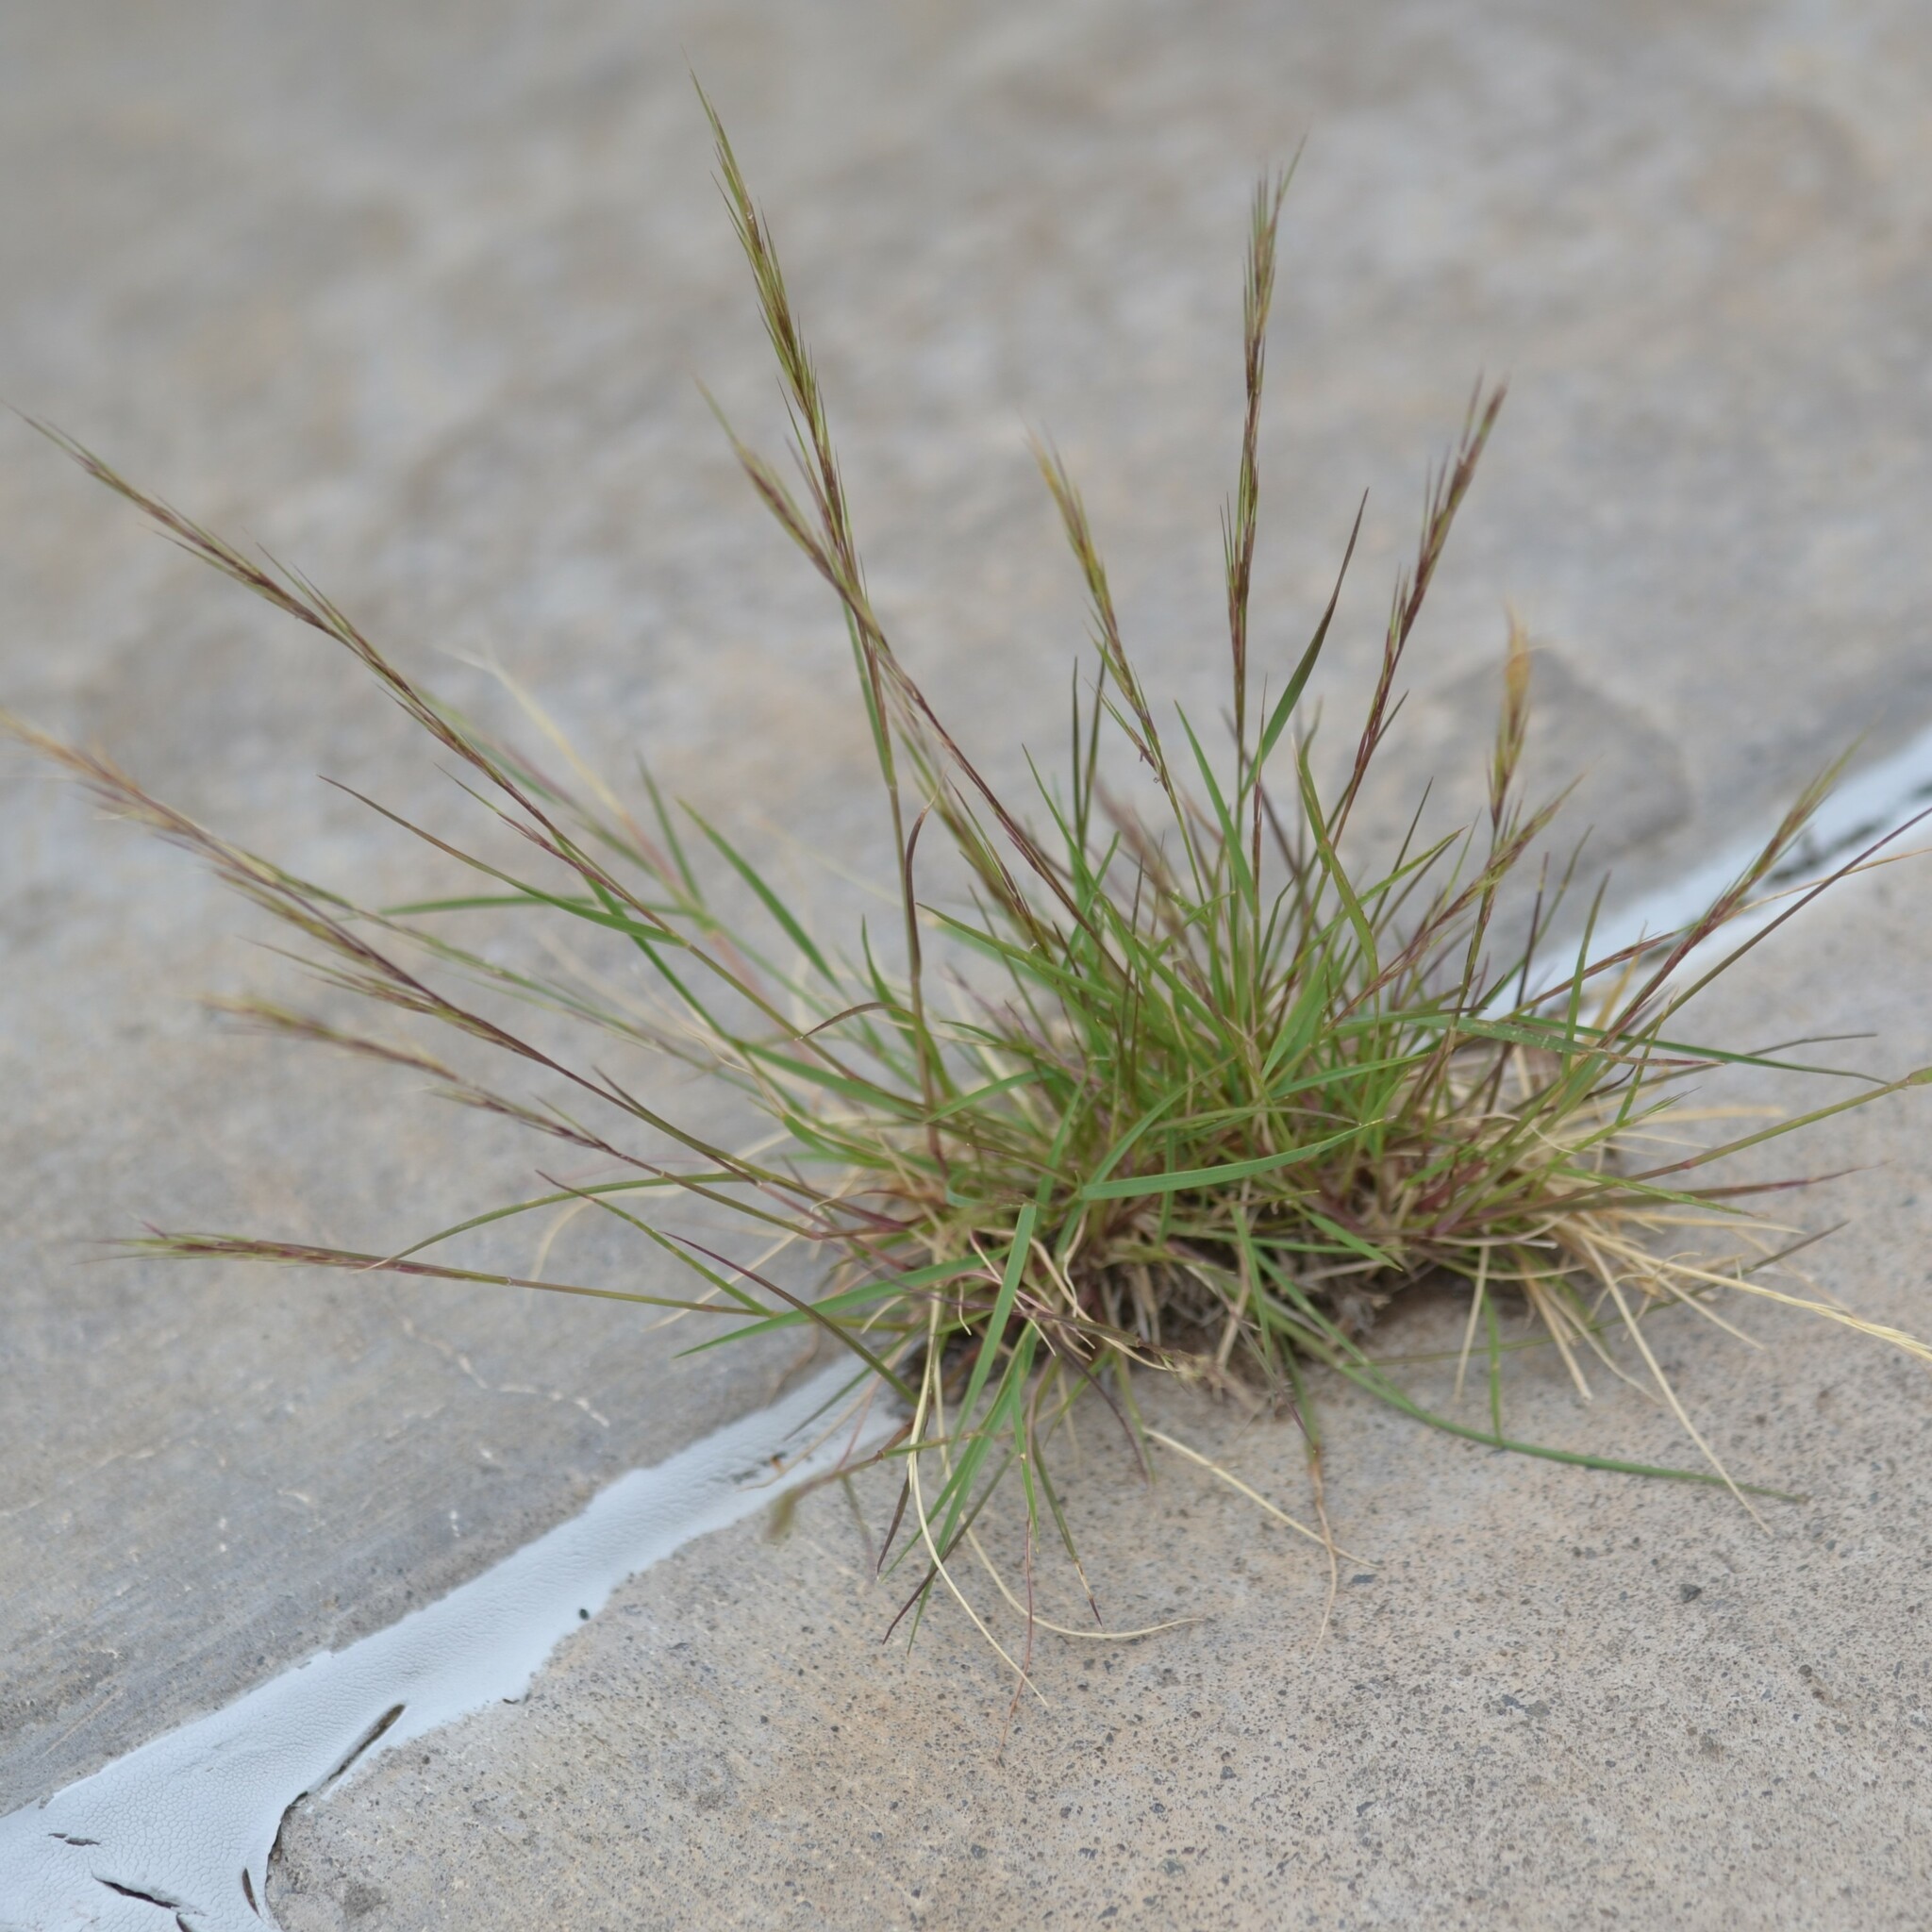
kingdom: Plantae
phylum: Tracheophyta
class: Liliopsida
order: Poales
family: Poaceae
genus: Aristida
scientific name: Aristida adscensionis
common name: Sixweeks threeawn
